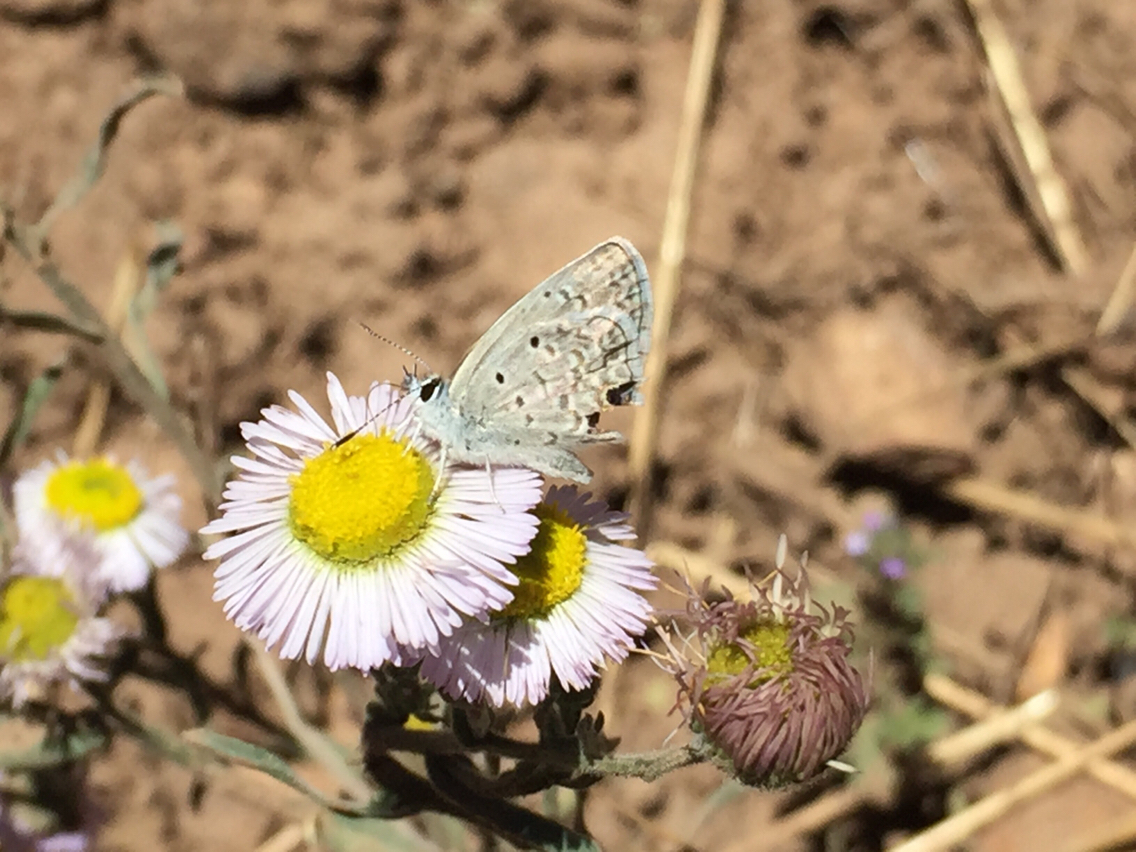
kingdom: Animalia
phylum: Arthropoda
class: Insecta
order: Lepidoptera
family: Lycaenidae
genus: Hemiargus
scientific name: Hemiargus ceraunus
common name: Ceraunus blue
